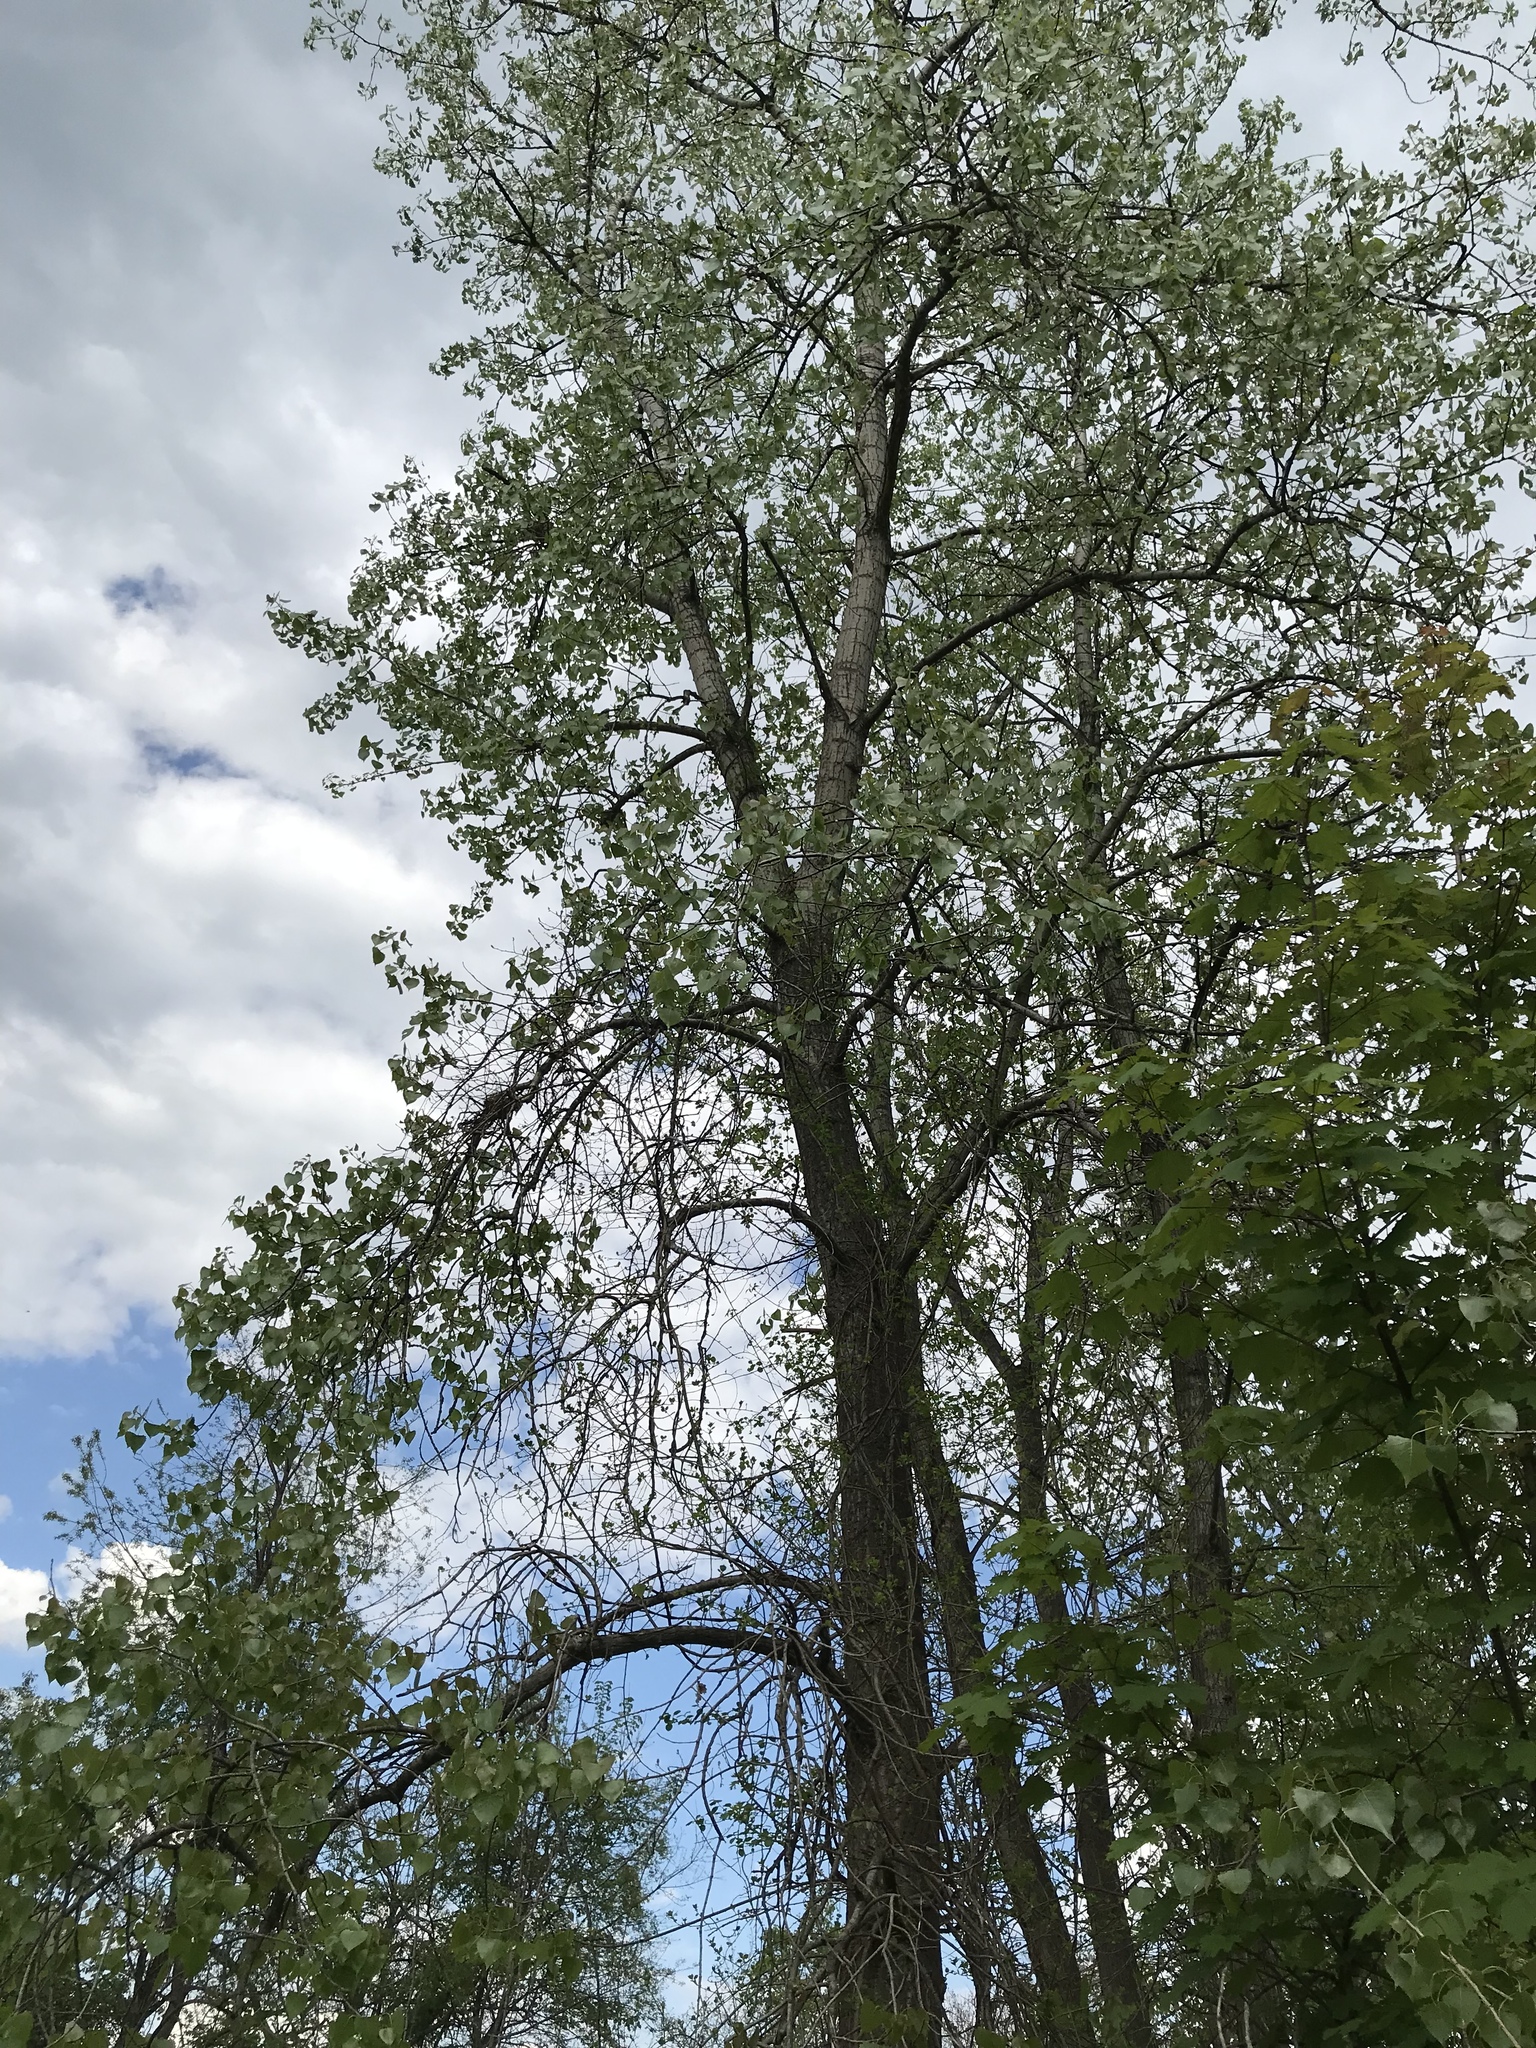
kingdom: Plantae
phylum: Tracheophyta
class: Magnoliopsida
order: Malpighiales
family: Salicaceae
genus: Populus
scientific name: Populus deltoides
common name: Eastern cottonwood
